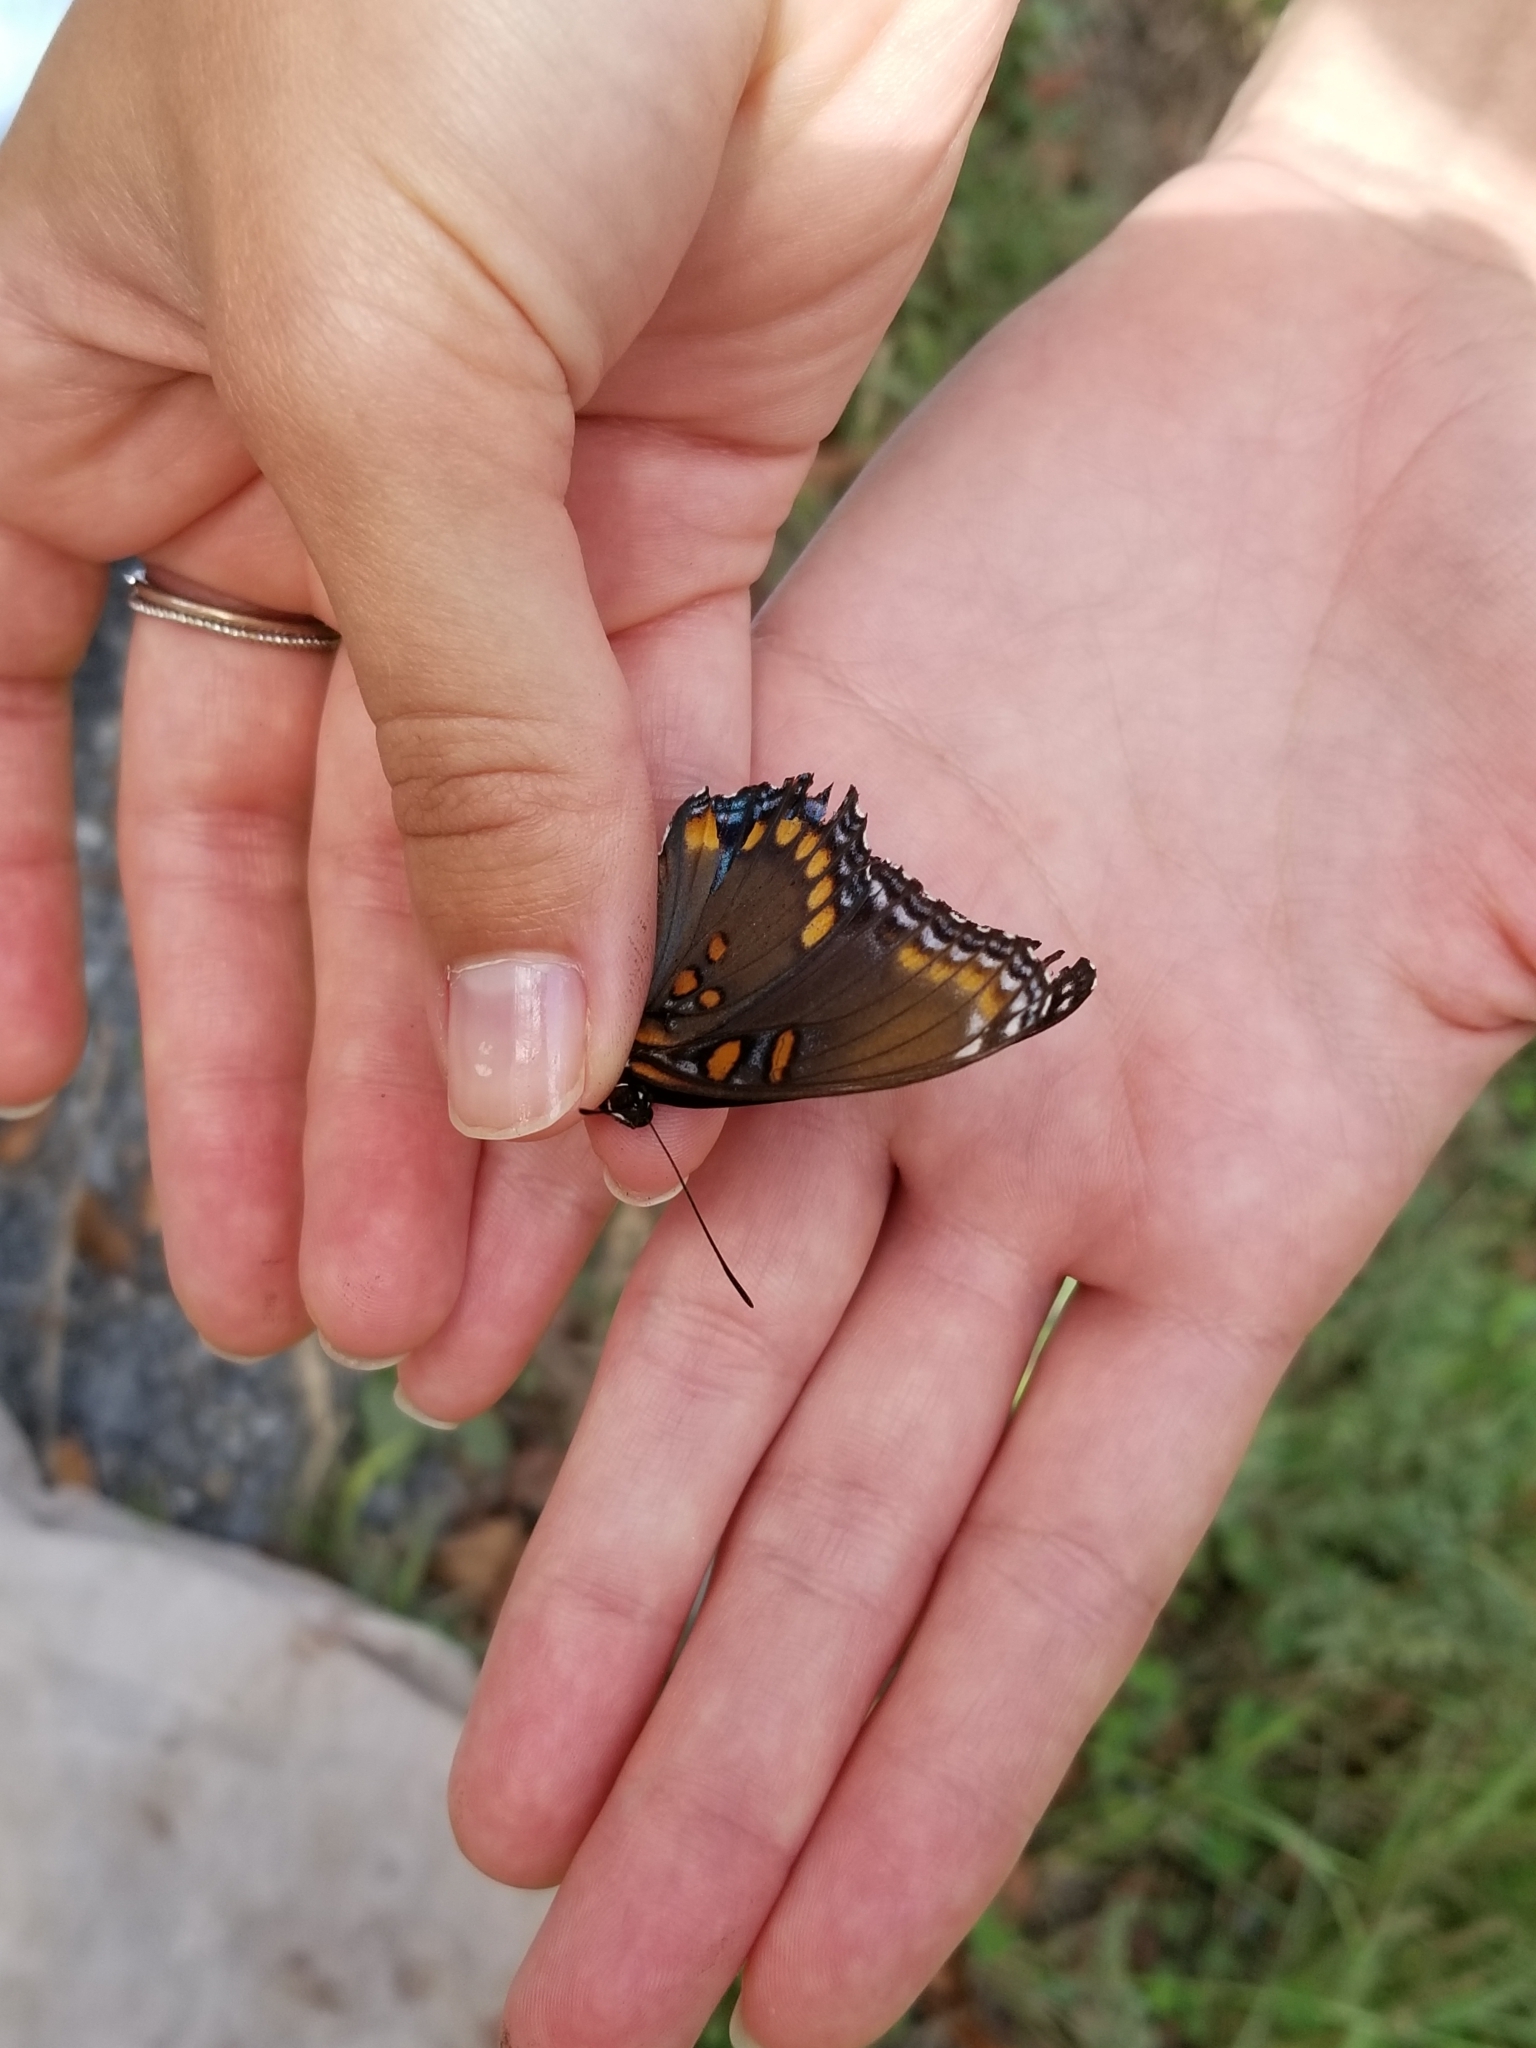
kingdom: Animalia
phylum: Arthropoda
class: Insecta
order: Lepidoptera
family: Nymphalidae
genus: Limenitis
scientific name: Limenitis astyanax
